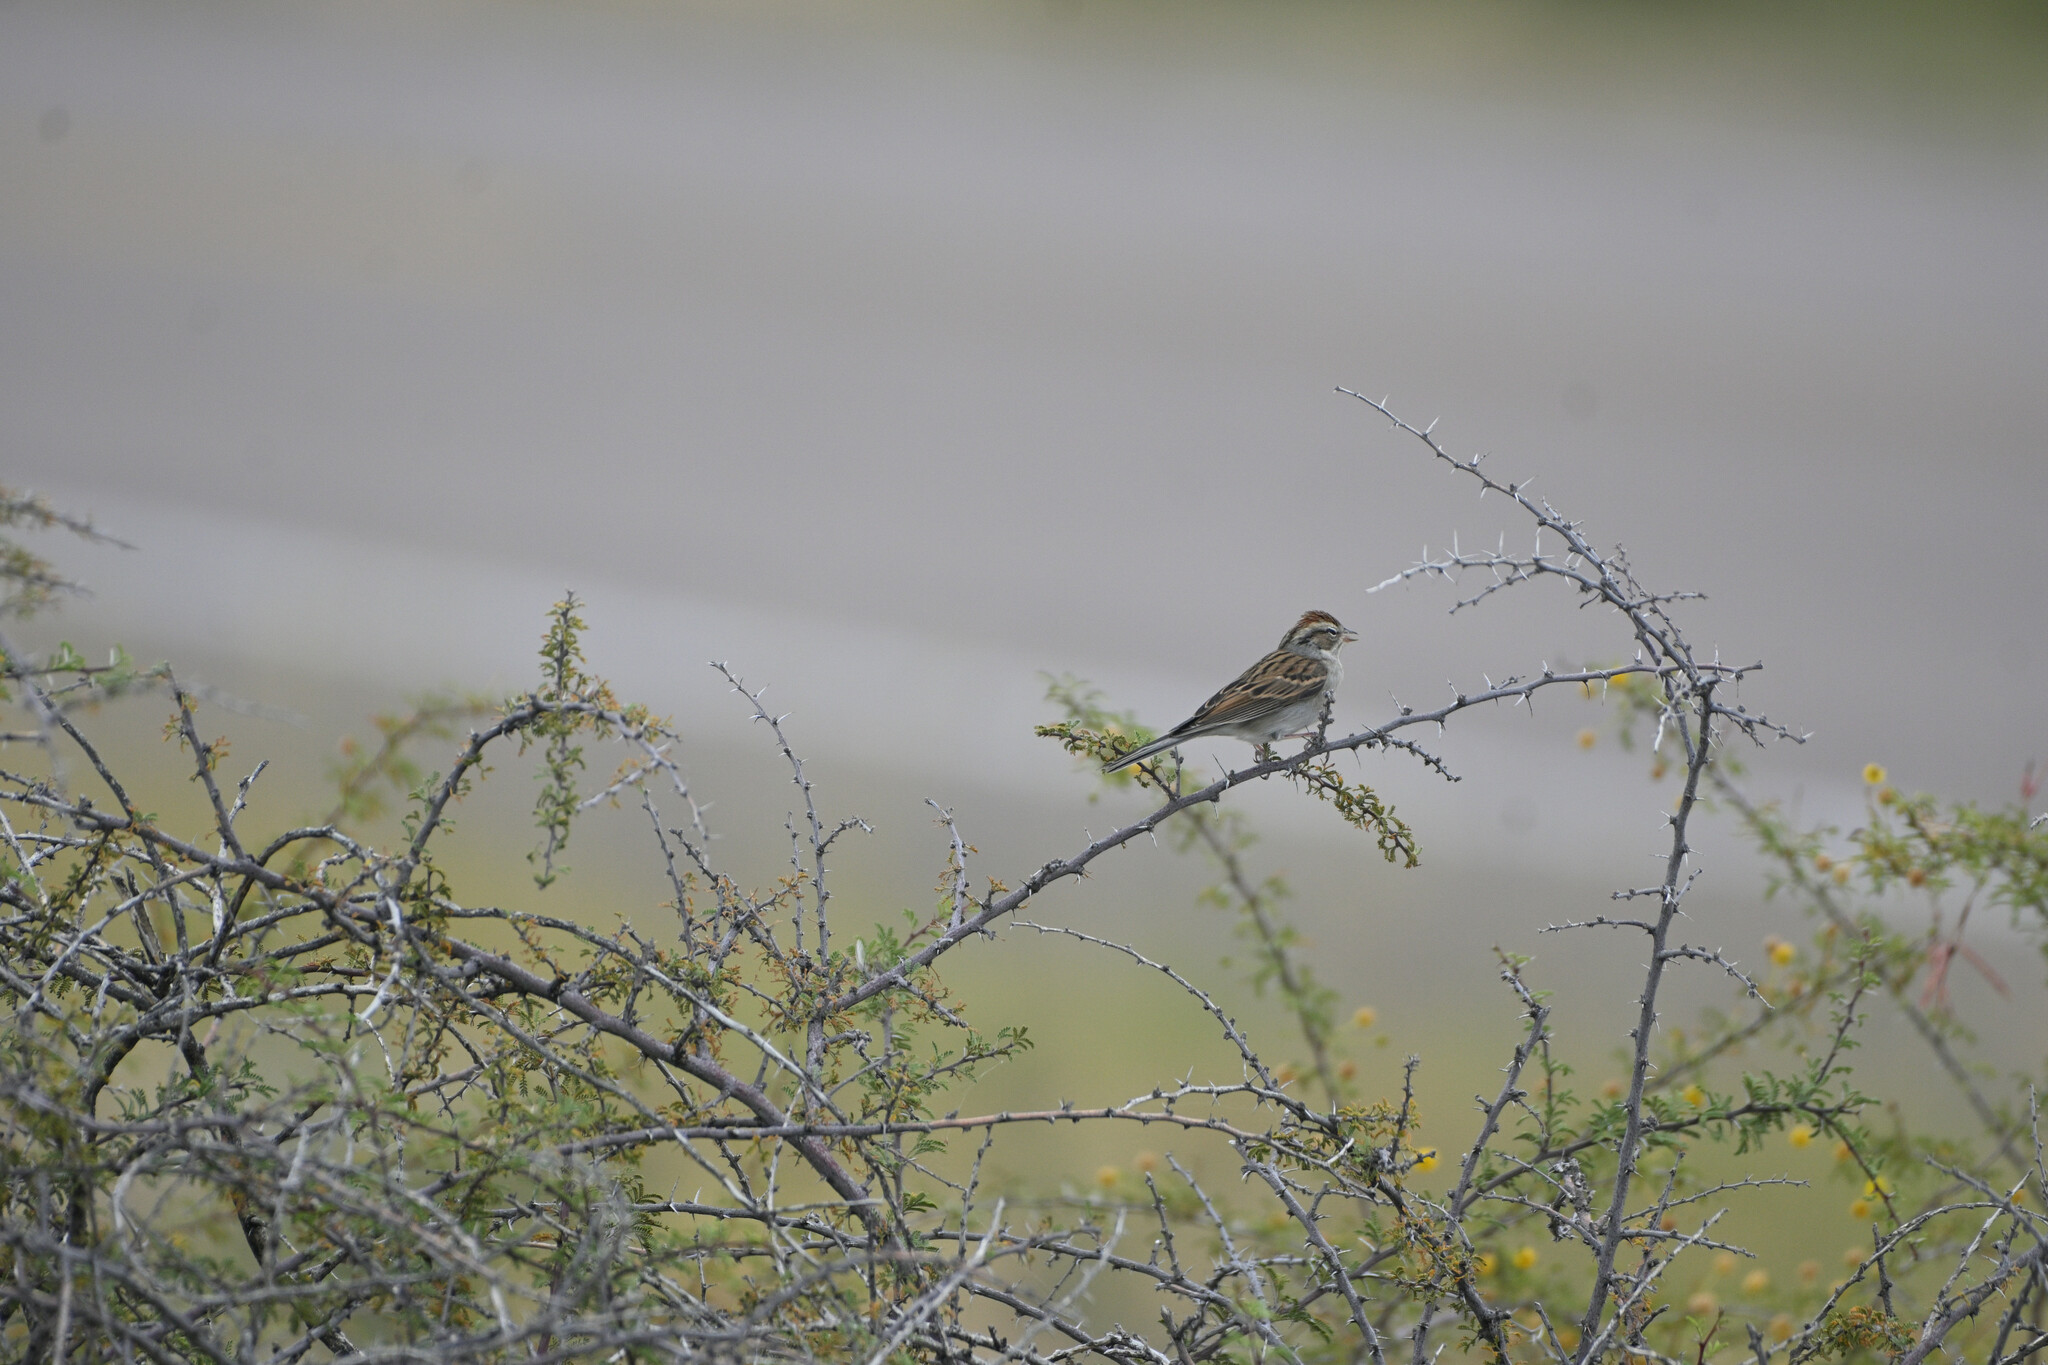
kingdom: Animalia
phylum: Chordata
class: Aves
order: Passeriformes
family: Passerellidae
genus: Spizella
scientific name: Spizella passerina
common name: Chipping sparrow
